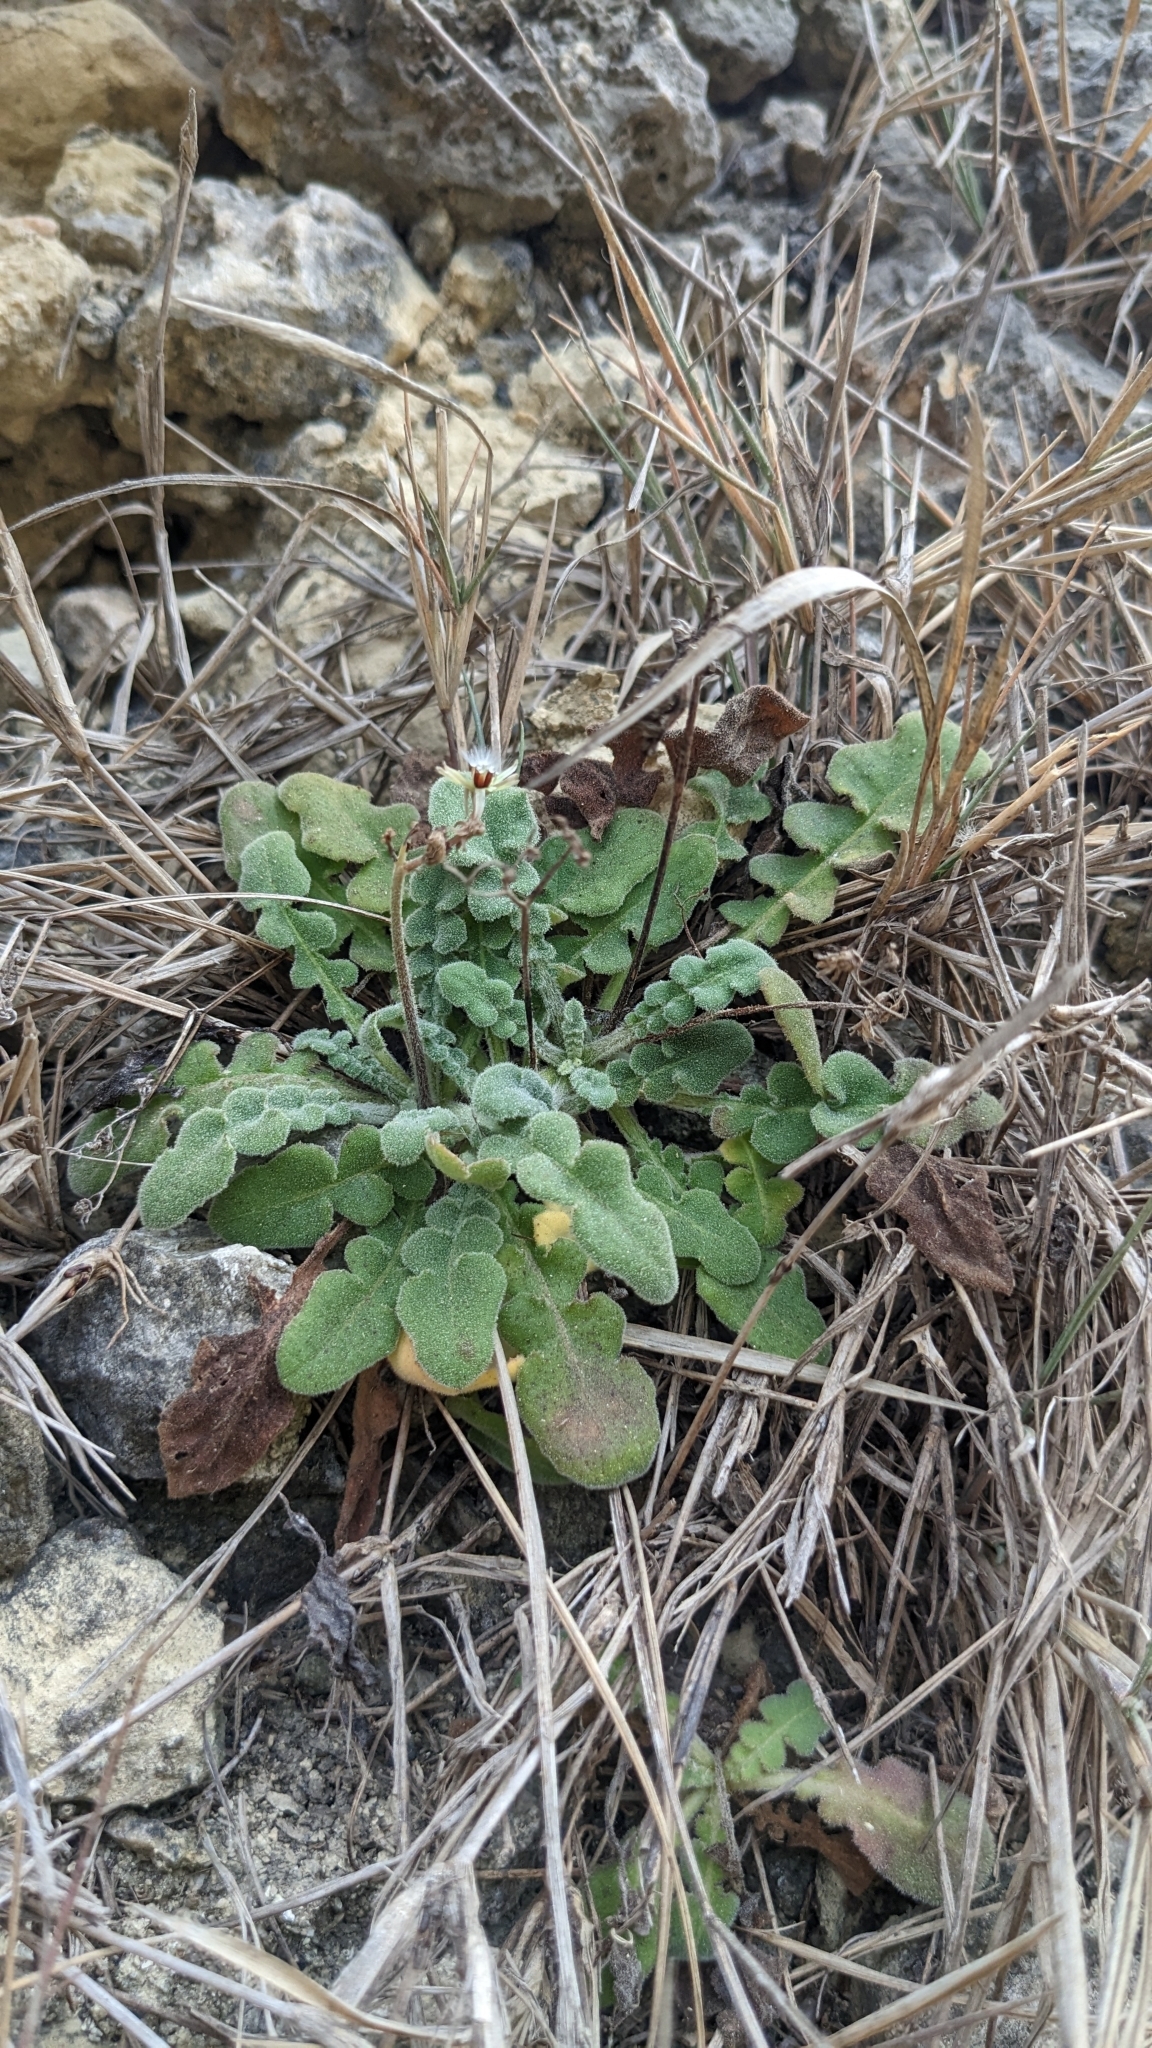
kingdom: Plantae
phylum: Tracheophyta
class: Magnoliopsida
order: Asterales
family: Asteraceae
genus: Youngia
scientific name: Youngia japonica
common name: Oriental false hawksbeard
